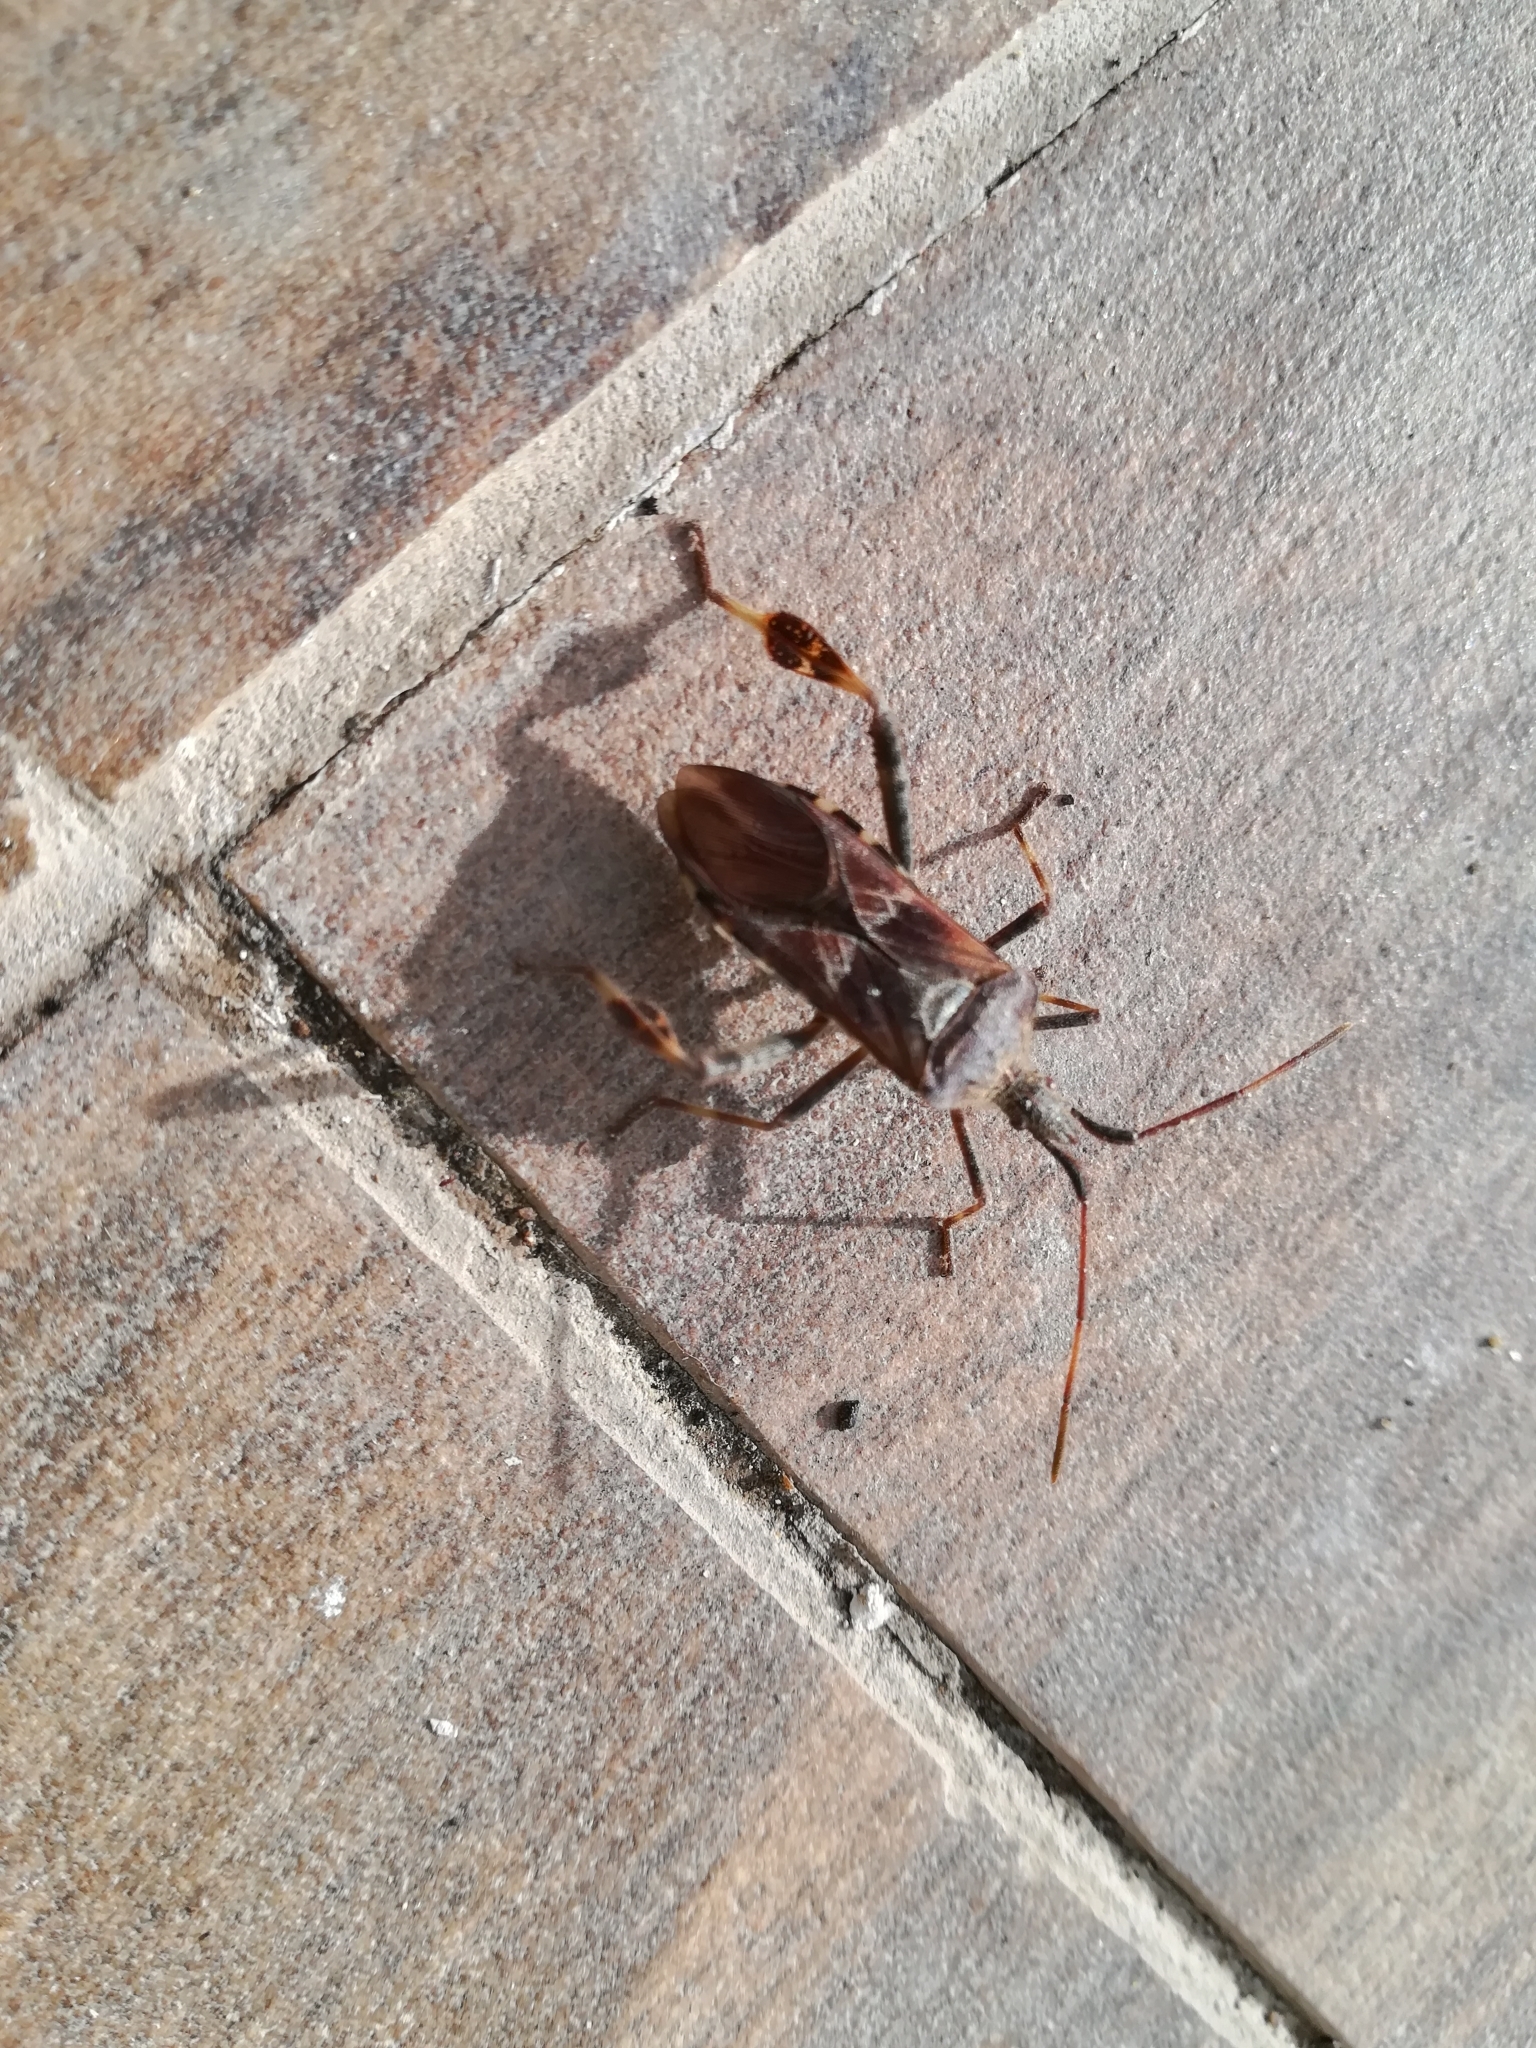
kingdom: Animalia
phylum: Arthropoda
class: Insecta
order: Hemiptera
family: Coreidae
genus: Leptoglossus
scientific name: Leptoglossus occidentalis
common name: Western conifer-seed bug
